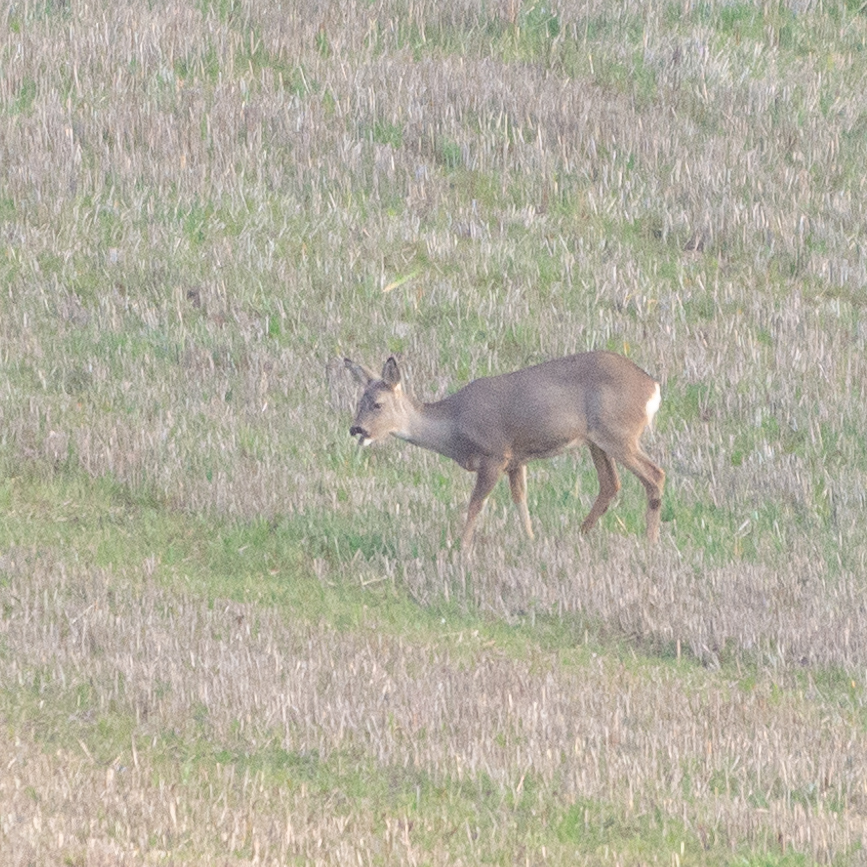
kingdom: Animalia
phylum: Chordata
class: Mammalia
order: Artiodactyla
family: Cervidae
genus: Capreolus
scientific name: Capreolus capreolus
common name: Western roe deer
